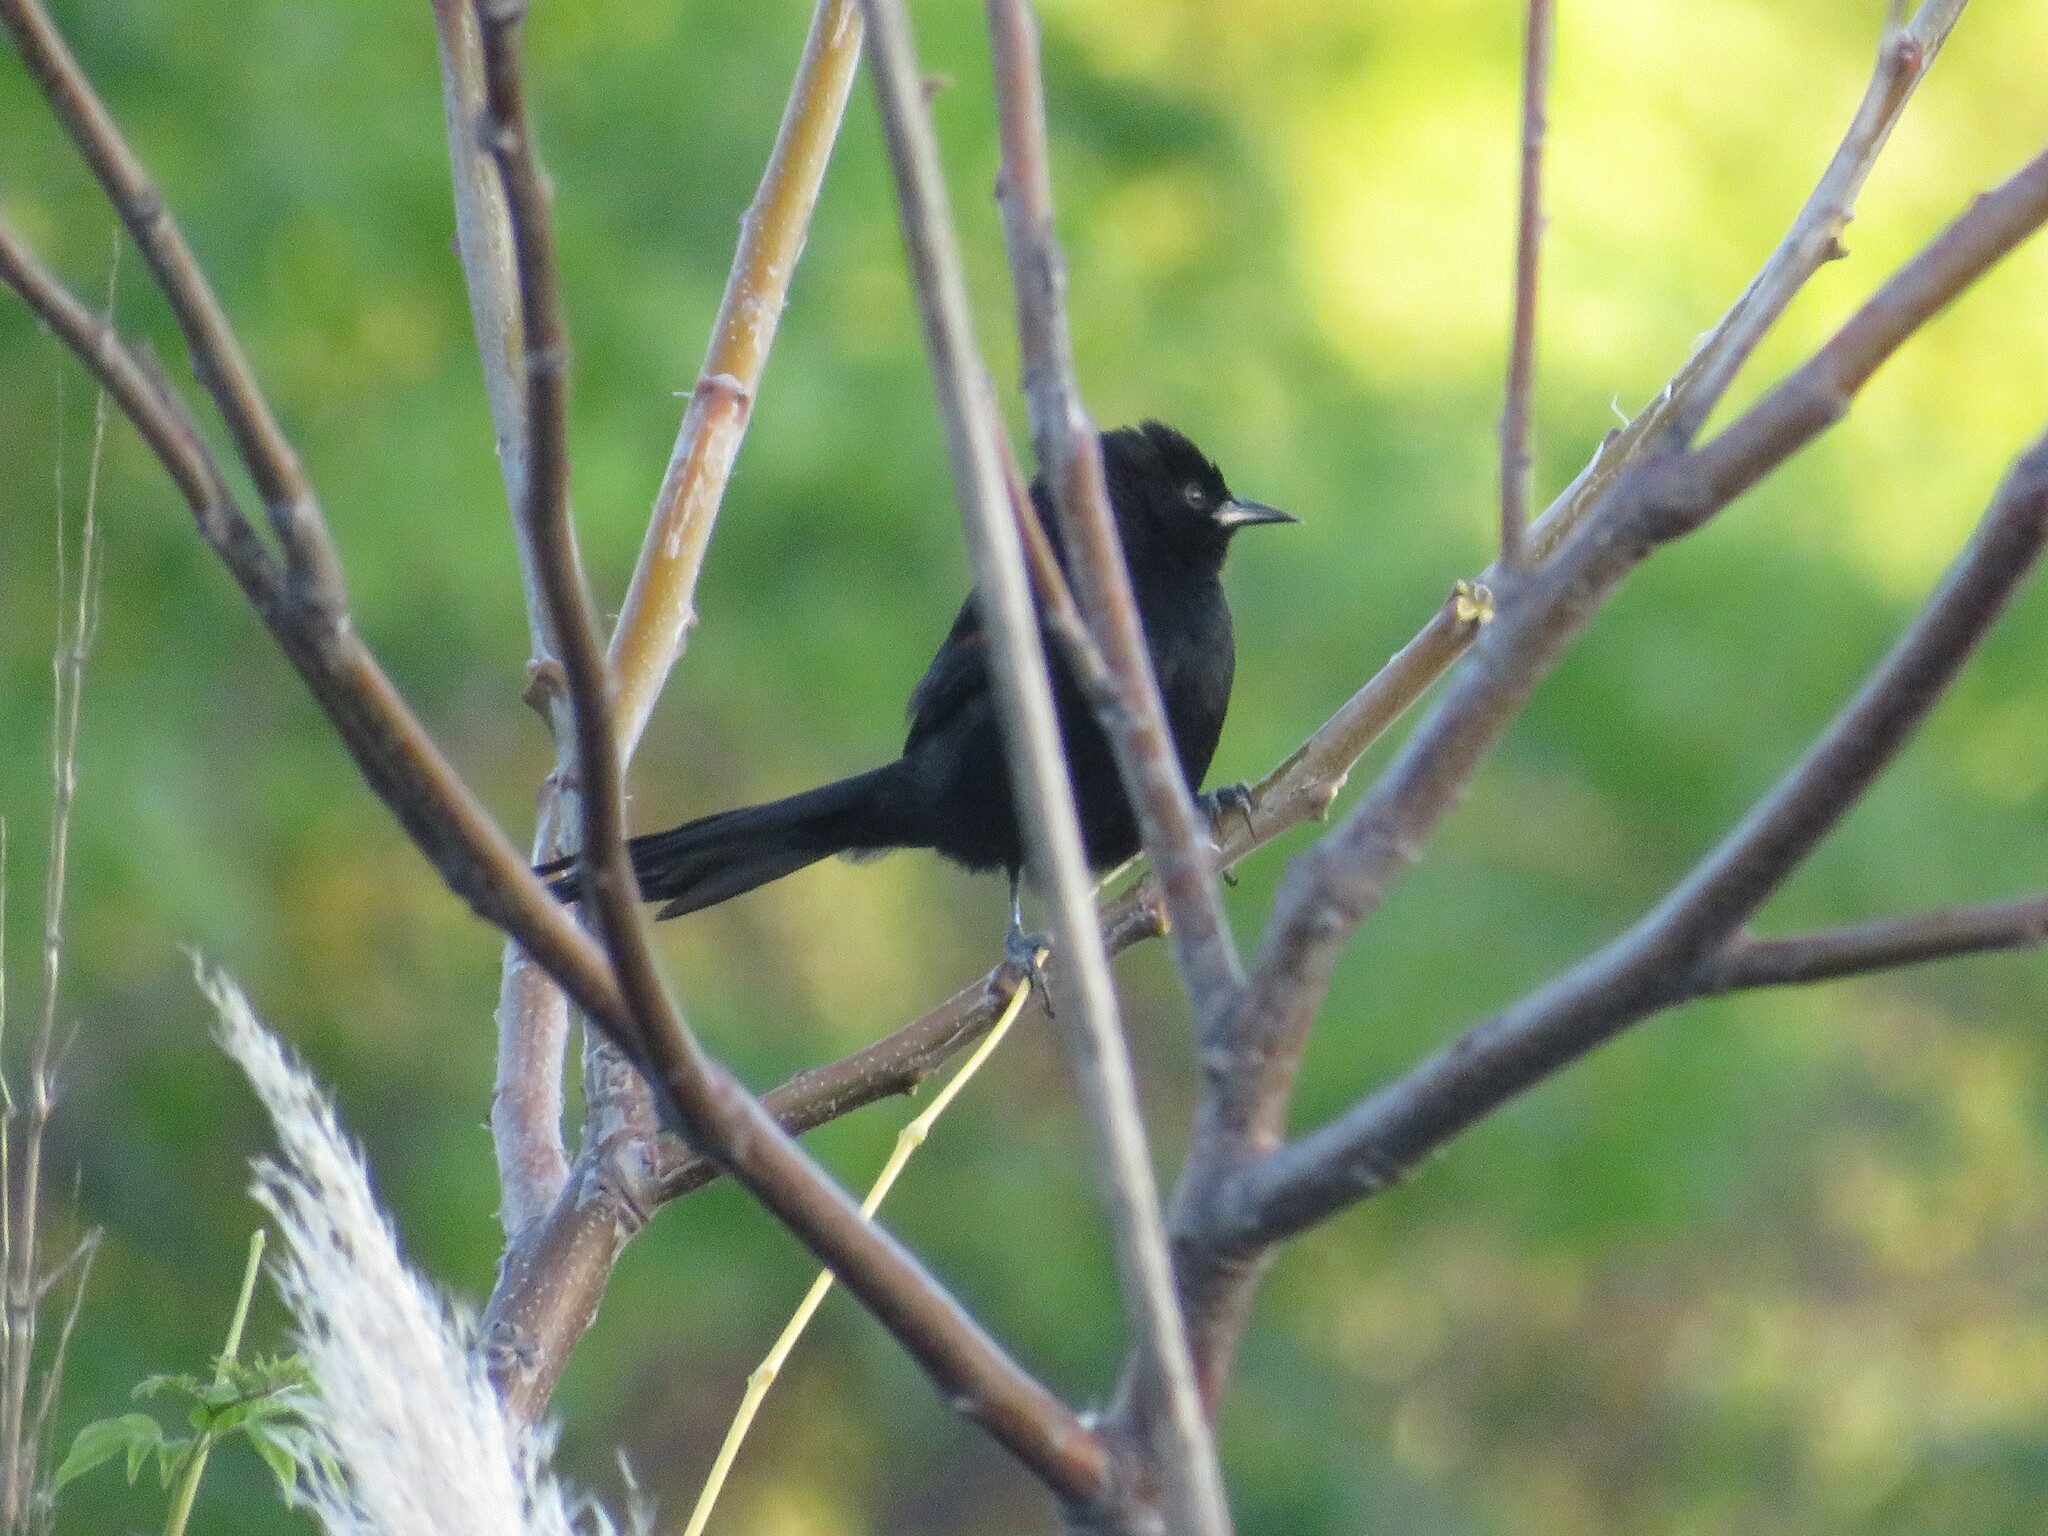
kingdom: Animalia
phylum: Chordata
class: Aves
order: Passeriformes
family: Icteridae
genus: Icterus
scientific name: Icterus cayanensis
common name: Epaulet oriole
